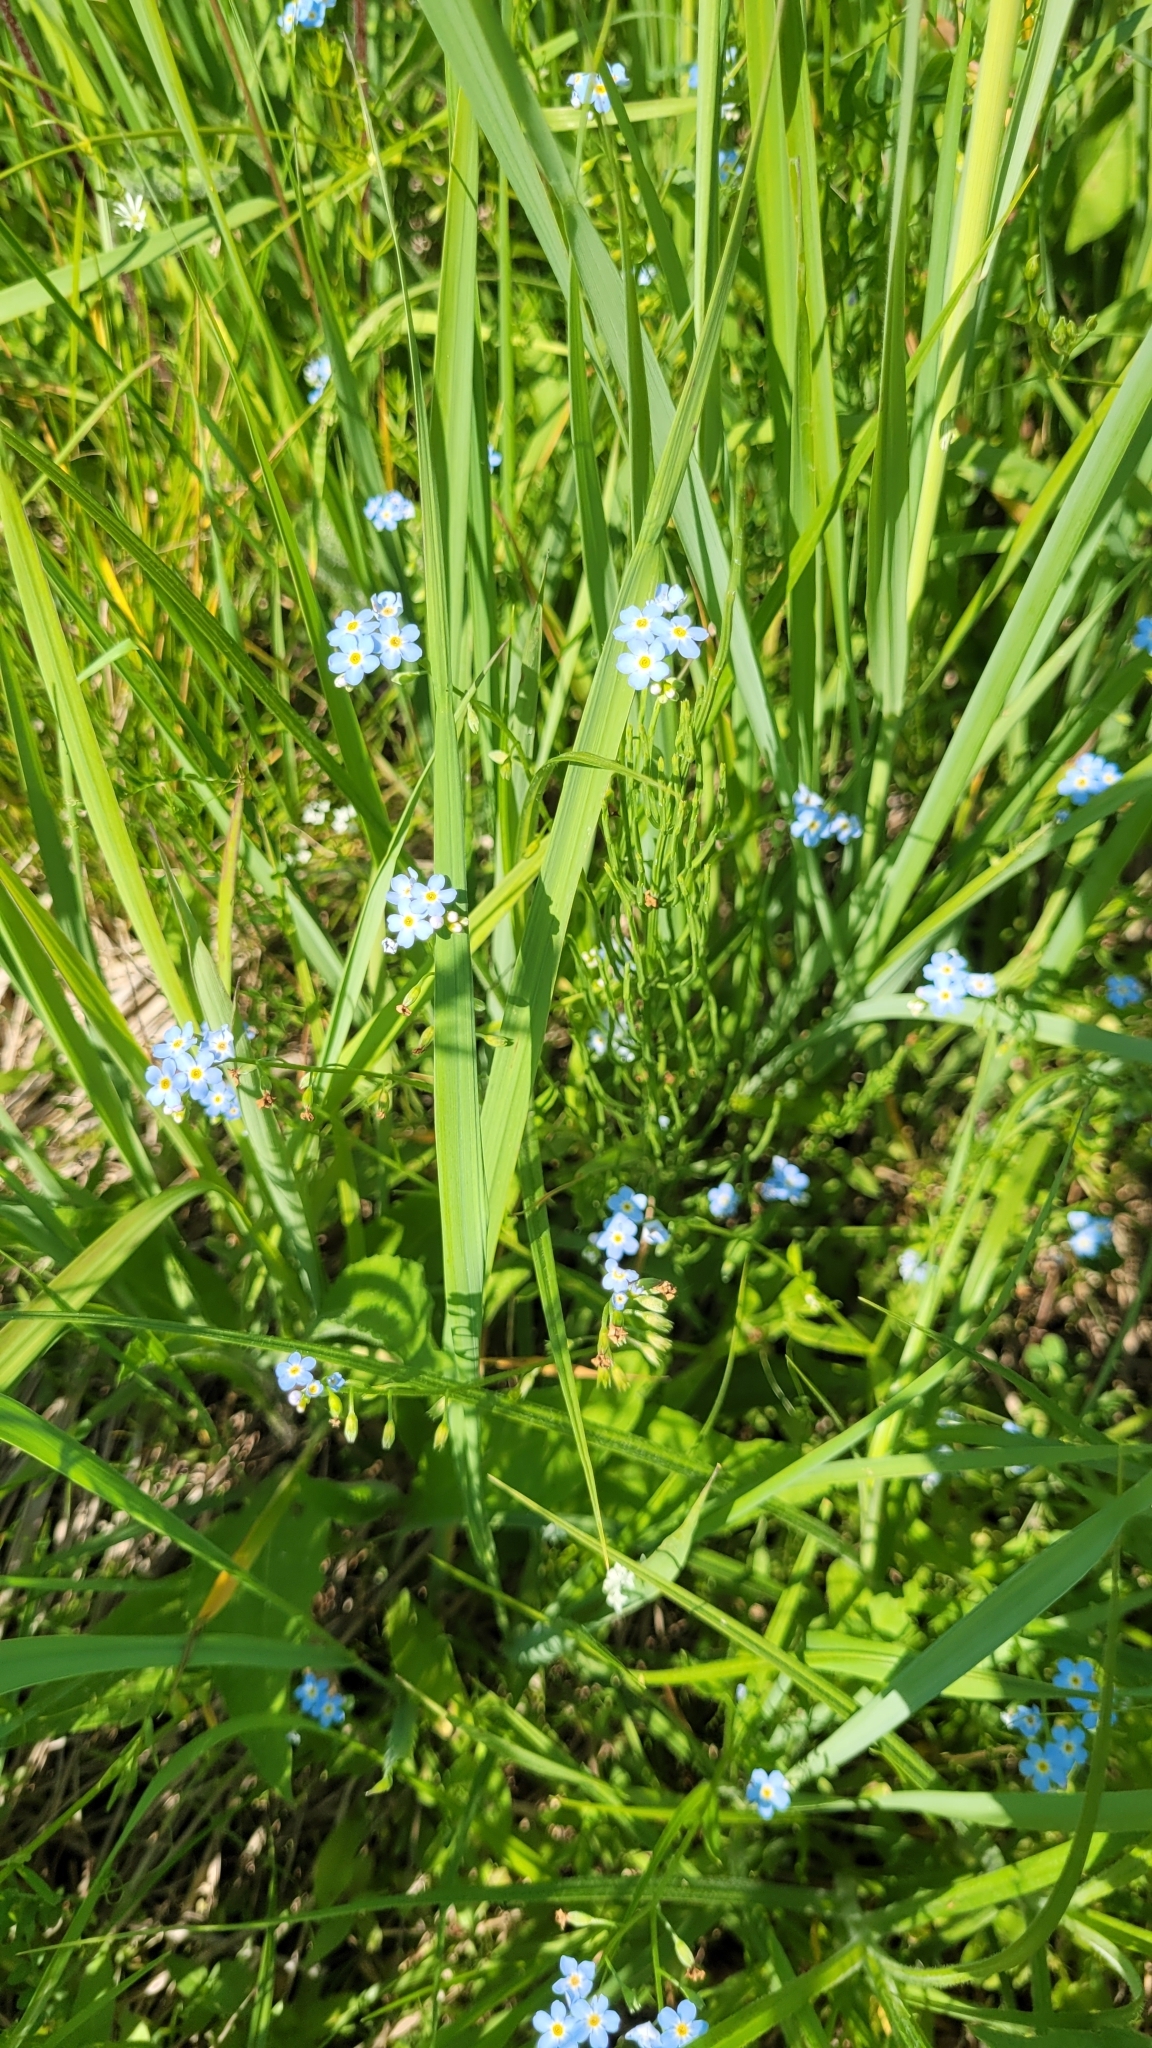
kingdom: Plantae
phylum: Tracheophyta
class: Magnoliopsida
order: Boraginales
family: Boraginaceae
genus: Myosotis
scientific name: Myosotis scorpioides
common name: Water forget-me-not
